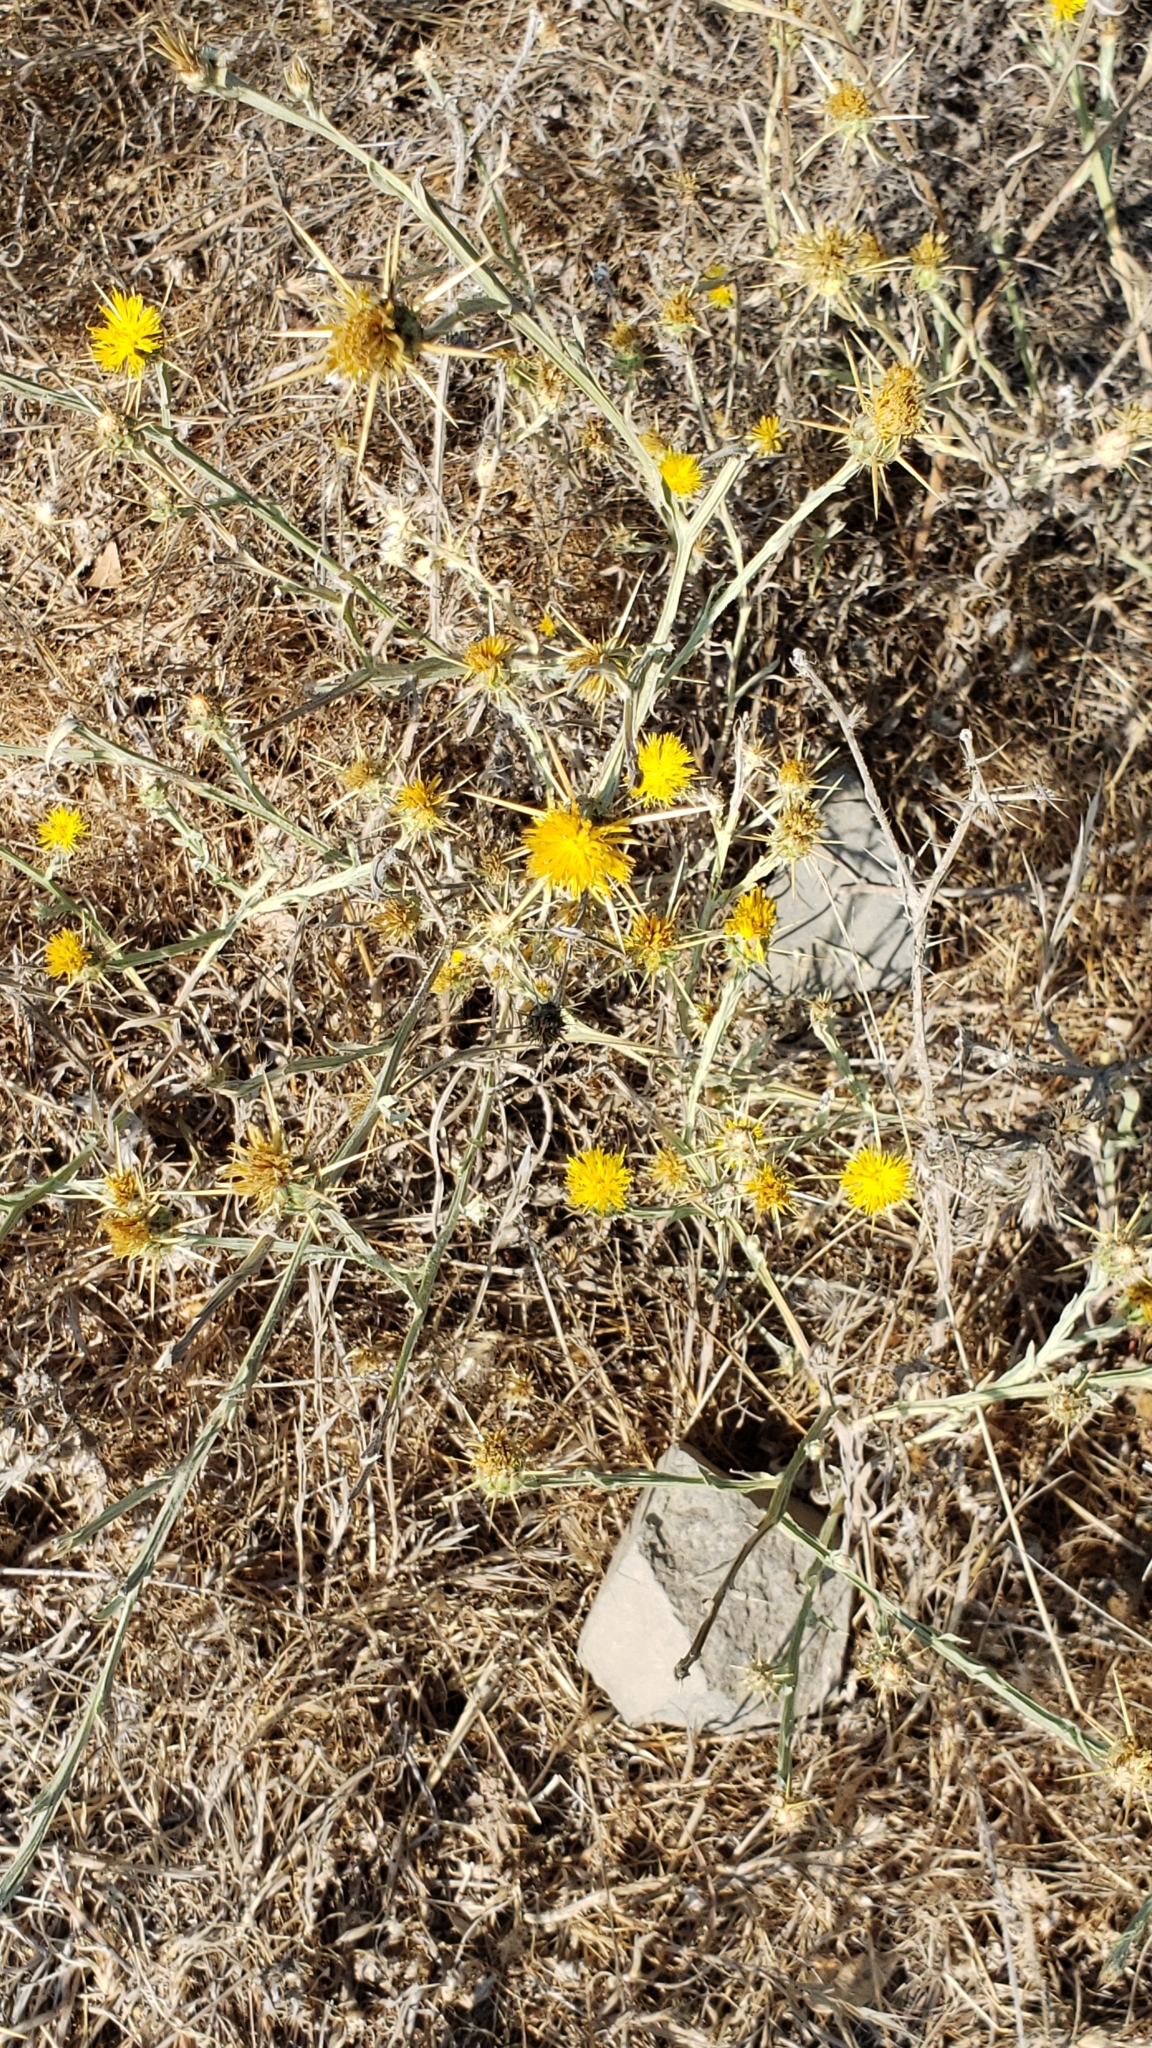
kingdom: Plantae
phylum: Tracheophyta
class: Magnoliopsida
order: Asterales
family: Asteraceae
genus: Centaurea
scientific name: Centaurea solstitialis
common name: Yellow star-thistle
